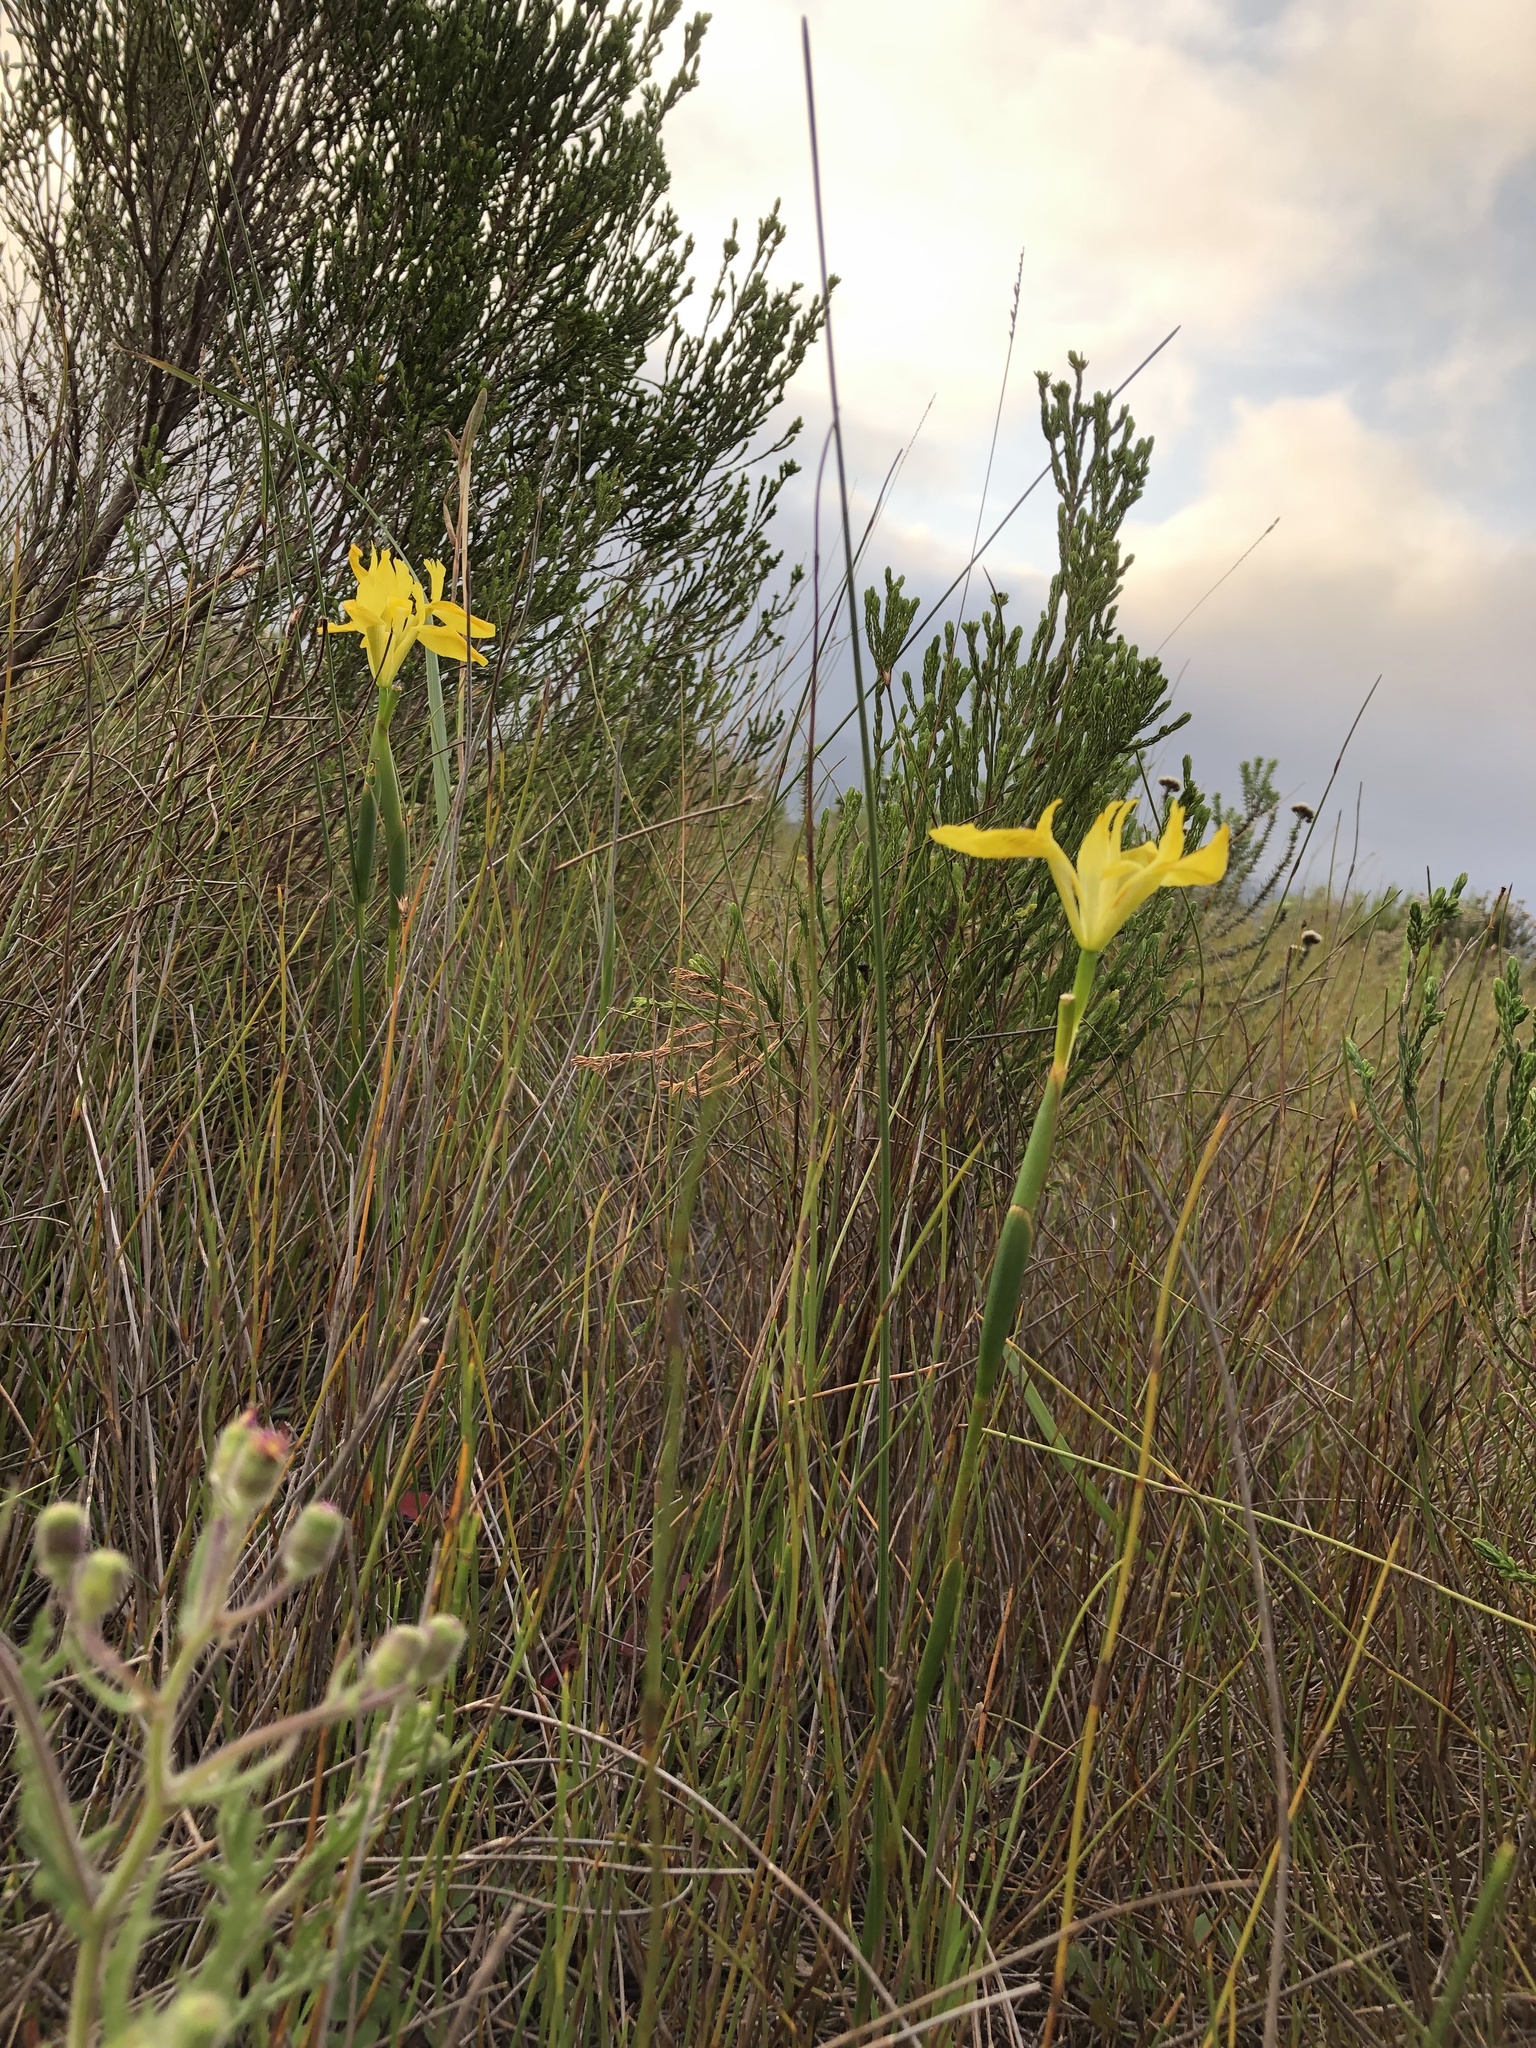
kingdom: Plantae
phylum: Tracheophyta
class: Liliopsida
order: Asparagales
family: Iridaceae
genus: Moraea
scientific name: Moraea neglecta
